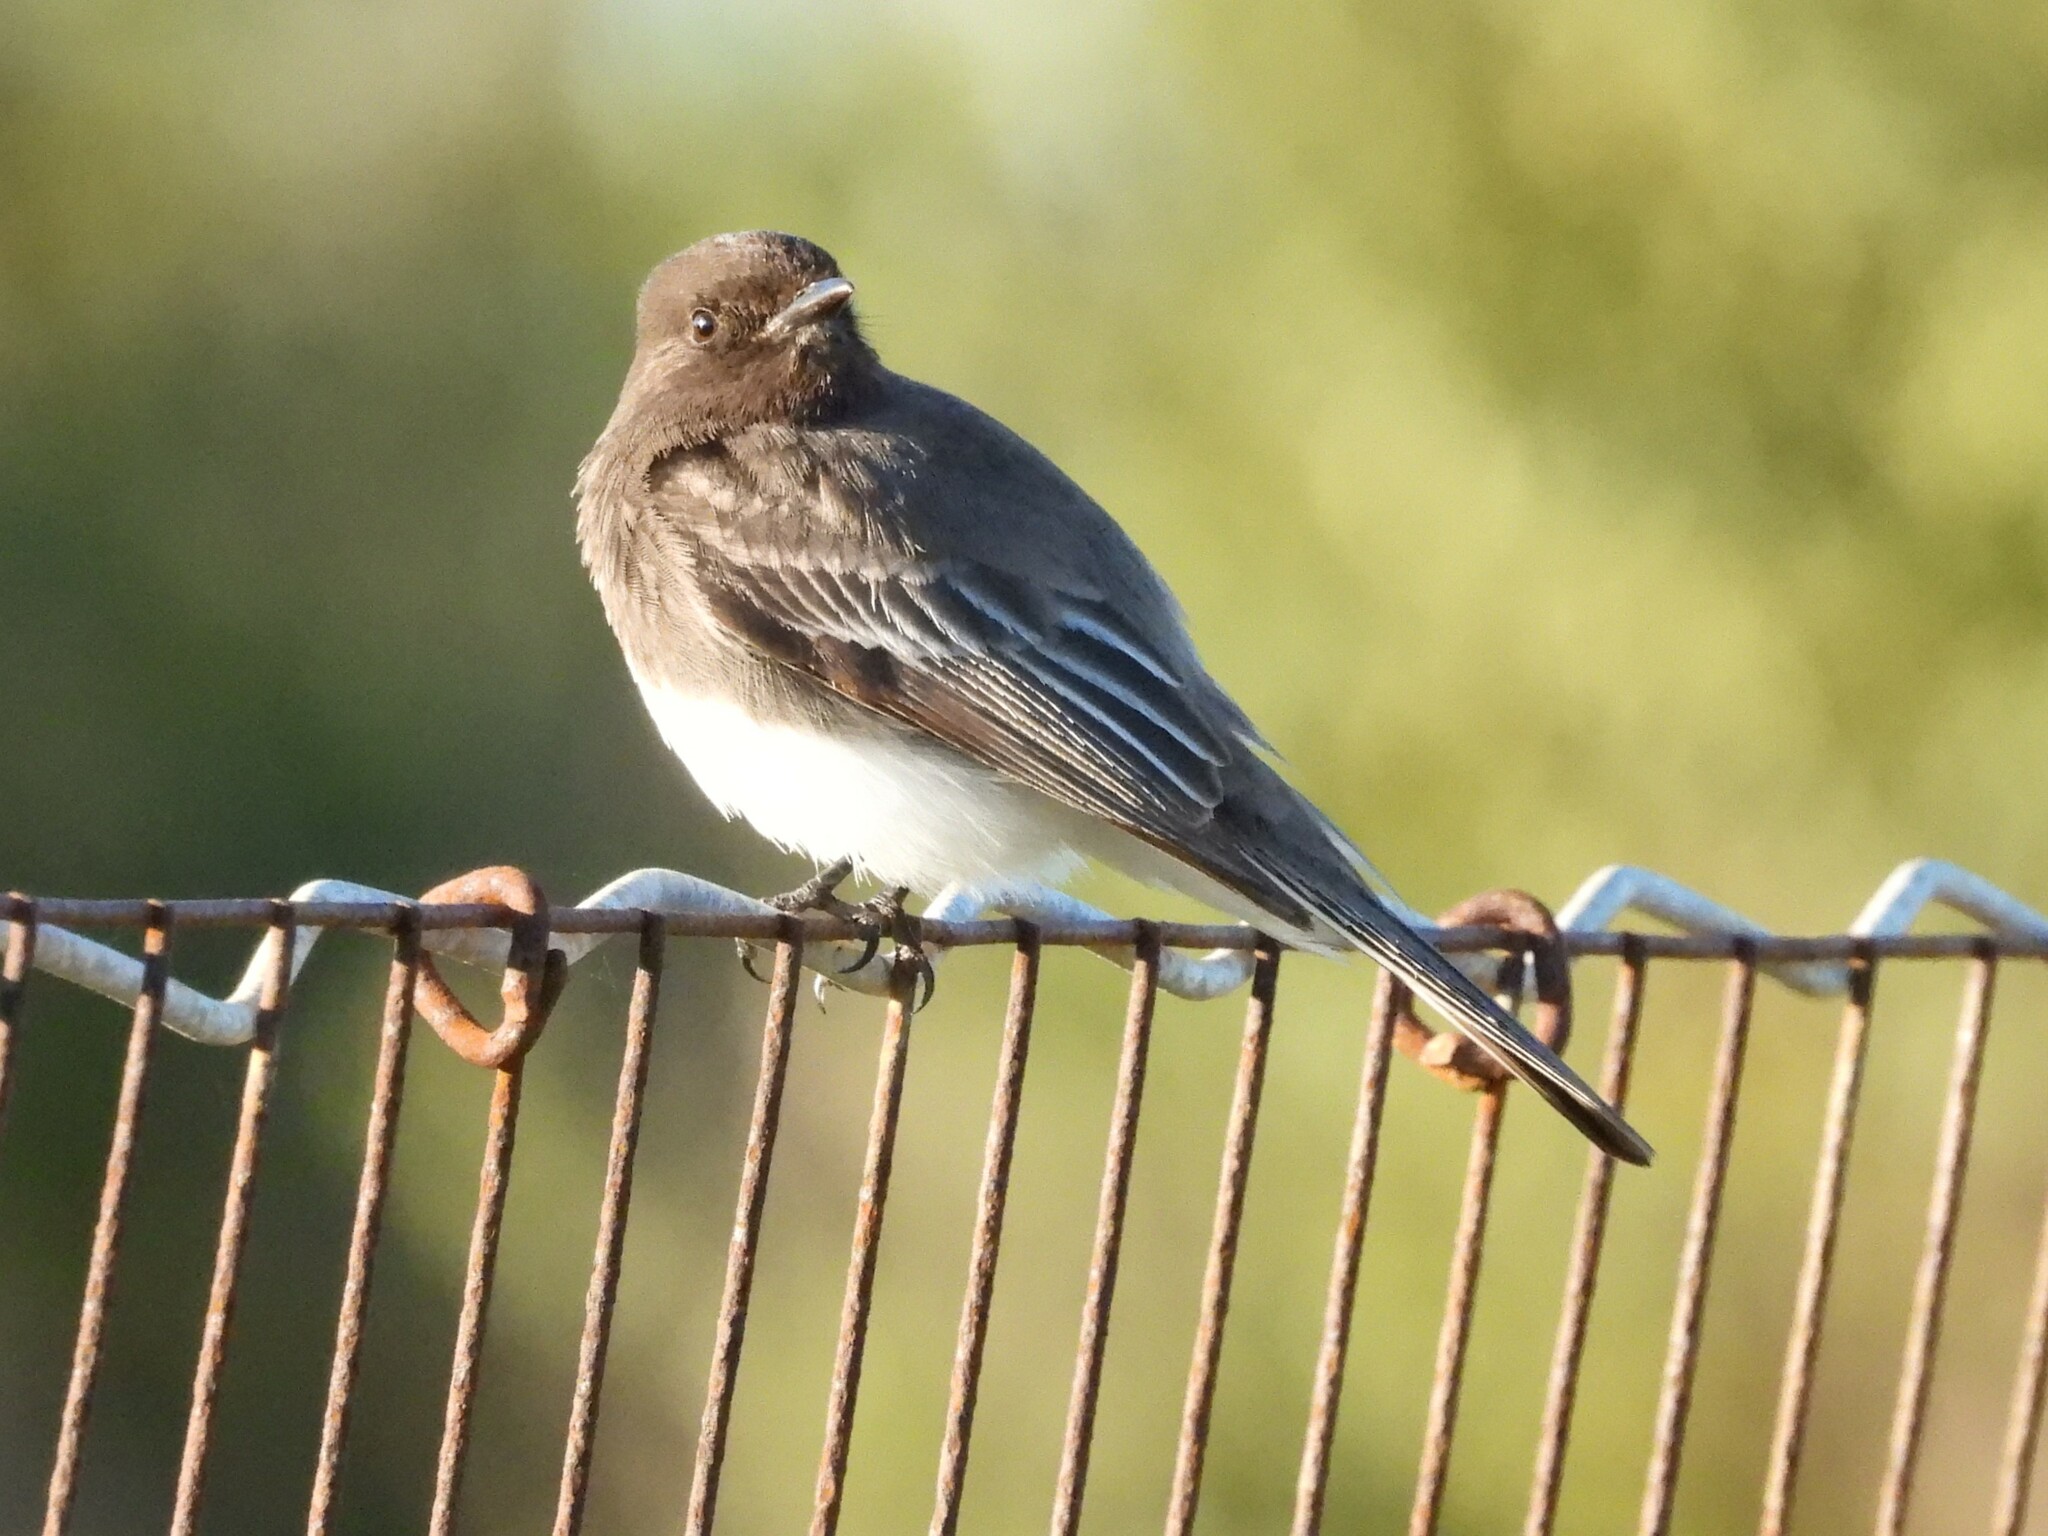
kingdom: Animalia
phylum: Chordata
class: Aves
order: Passeriformes
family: Tyrannidae
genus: Sayornis
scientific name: Sayornis nigricans
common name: Black phoebe
